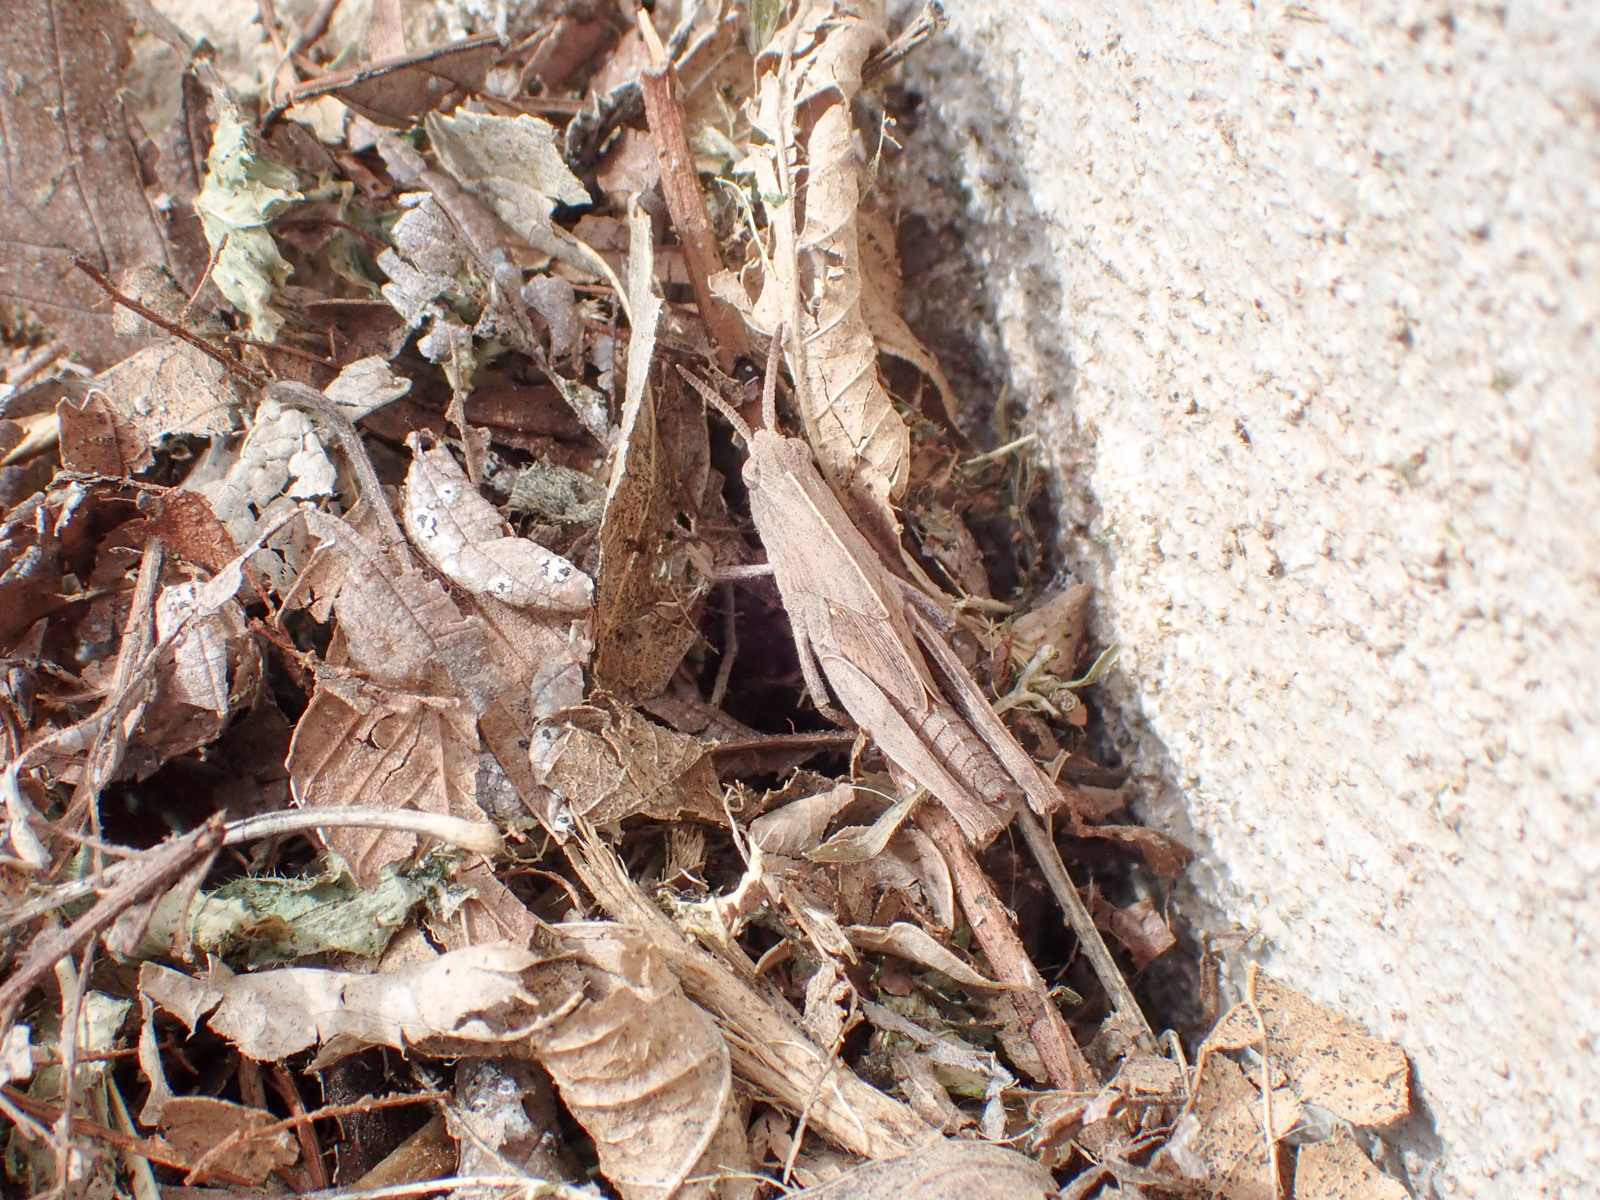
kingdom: Animalia
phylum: Arthropoda
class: Insecta
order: Orthoptera
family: Acrididae
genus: Chortophaga
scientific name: Chortophaga viridifasciata
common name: Green-striped grasshopper
